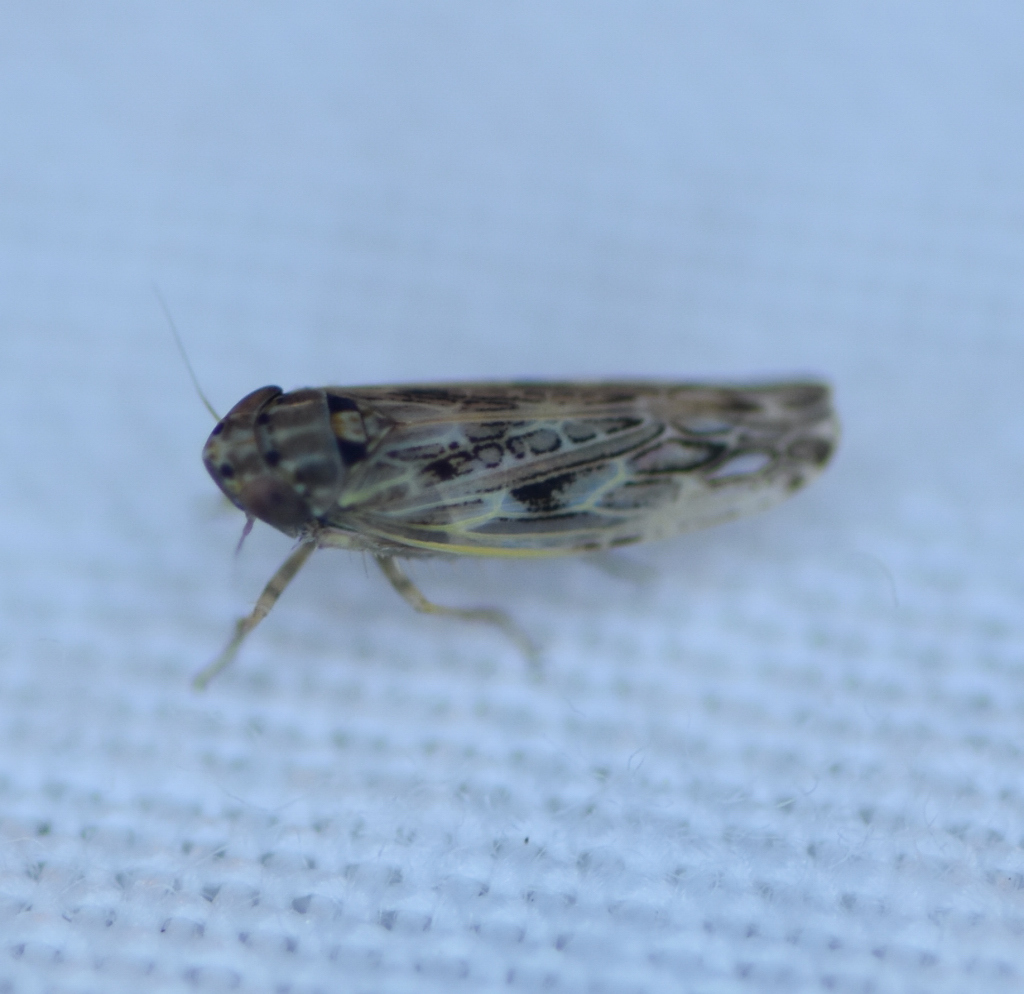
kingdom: Animalia
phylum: Arthropoda
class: Insecta
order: Hemiptera
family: Cicadellidae
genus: Endria
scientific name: Endria inimicus
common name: Painted leafhopper
